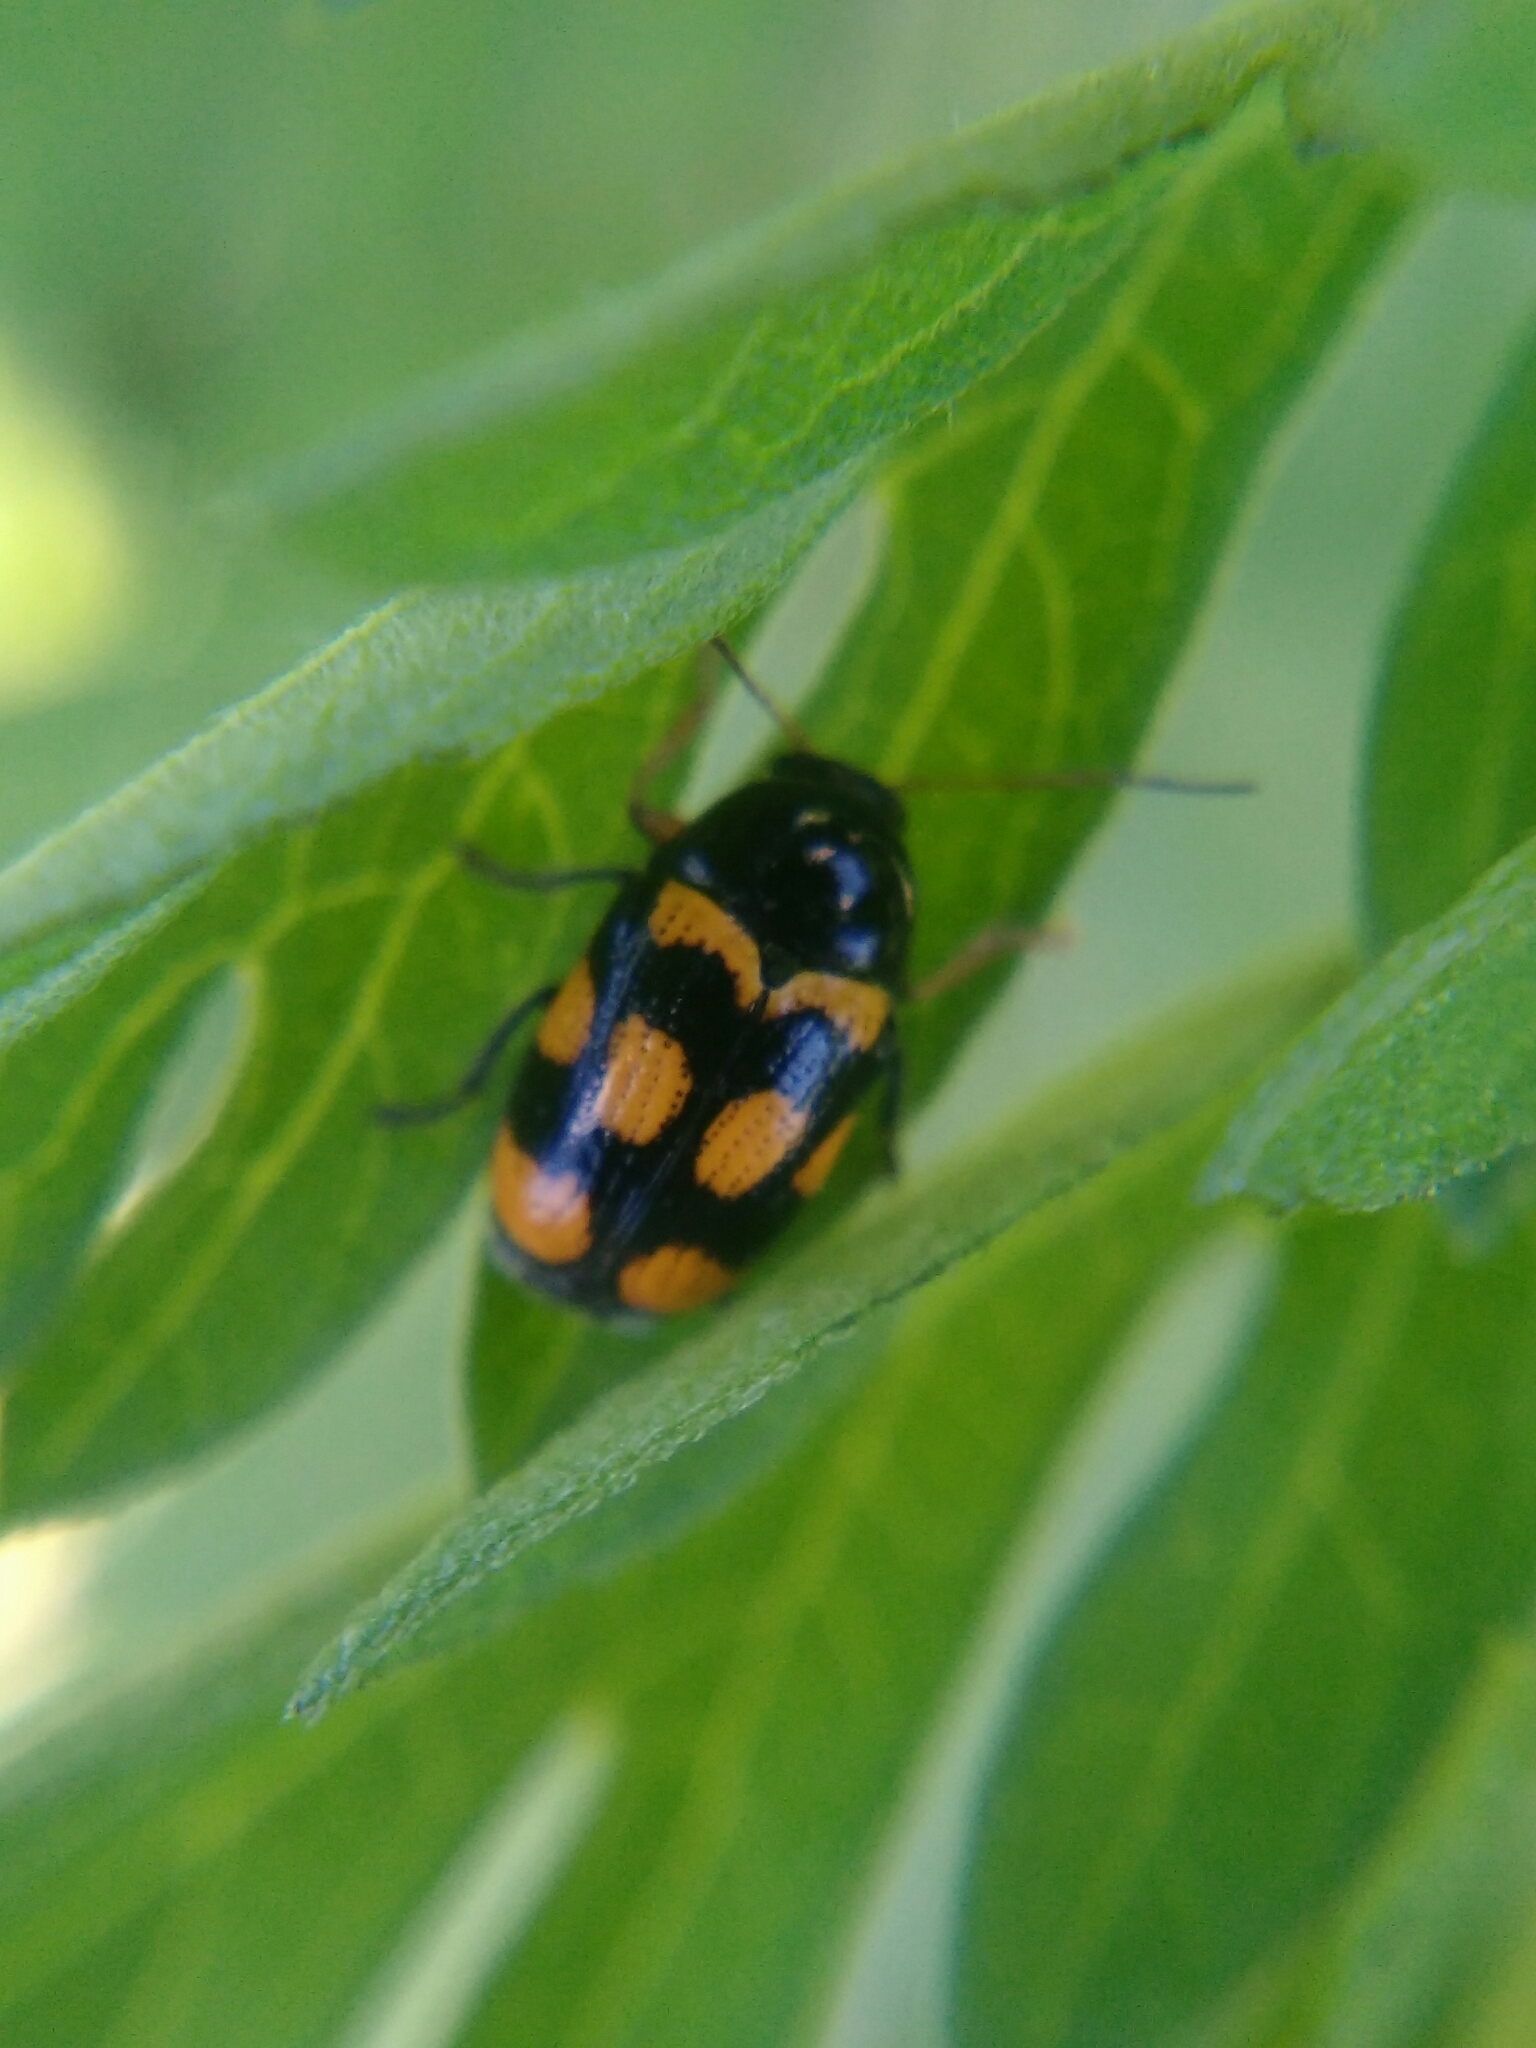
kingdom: Animalia
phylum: Arthropoda
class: Insecta
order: Coleoptera
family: Chrysomelidae
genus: Cryptocephalus
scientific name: Cryptocephalus anticus
